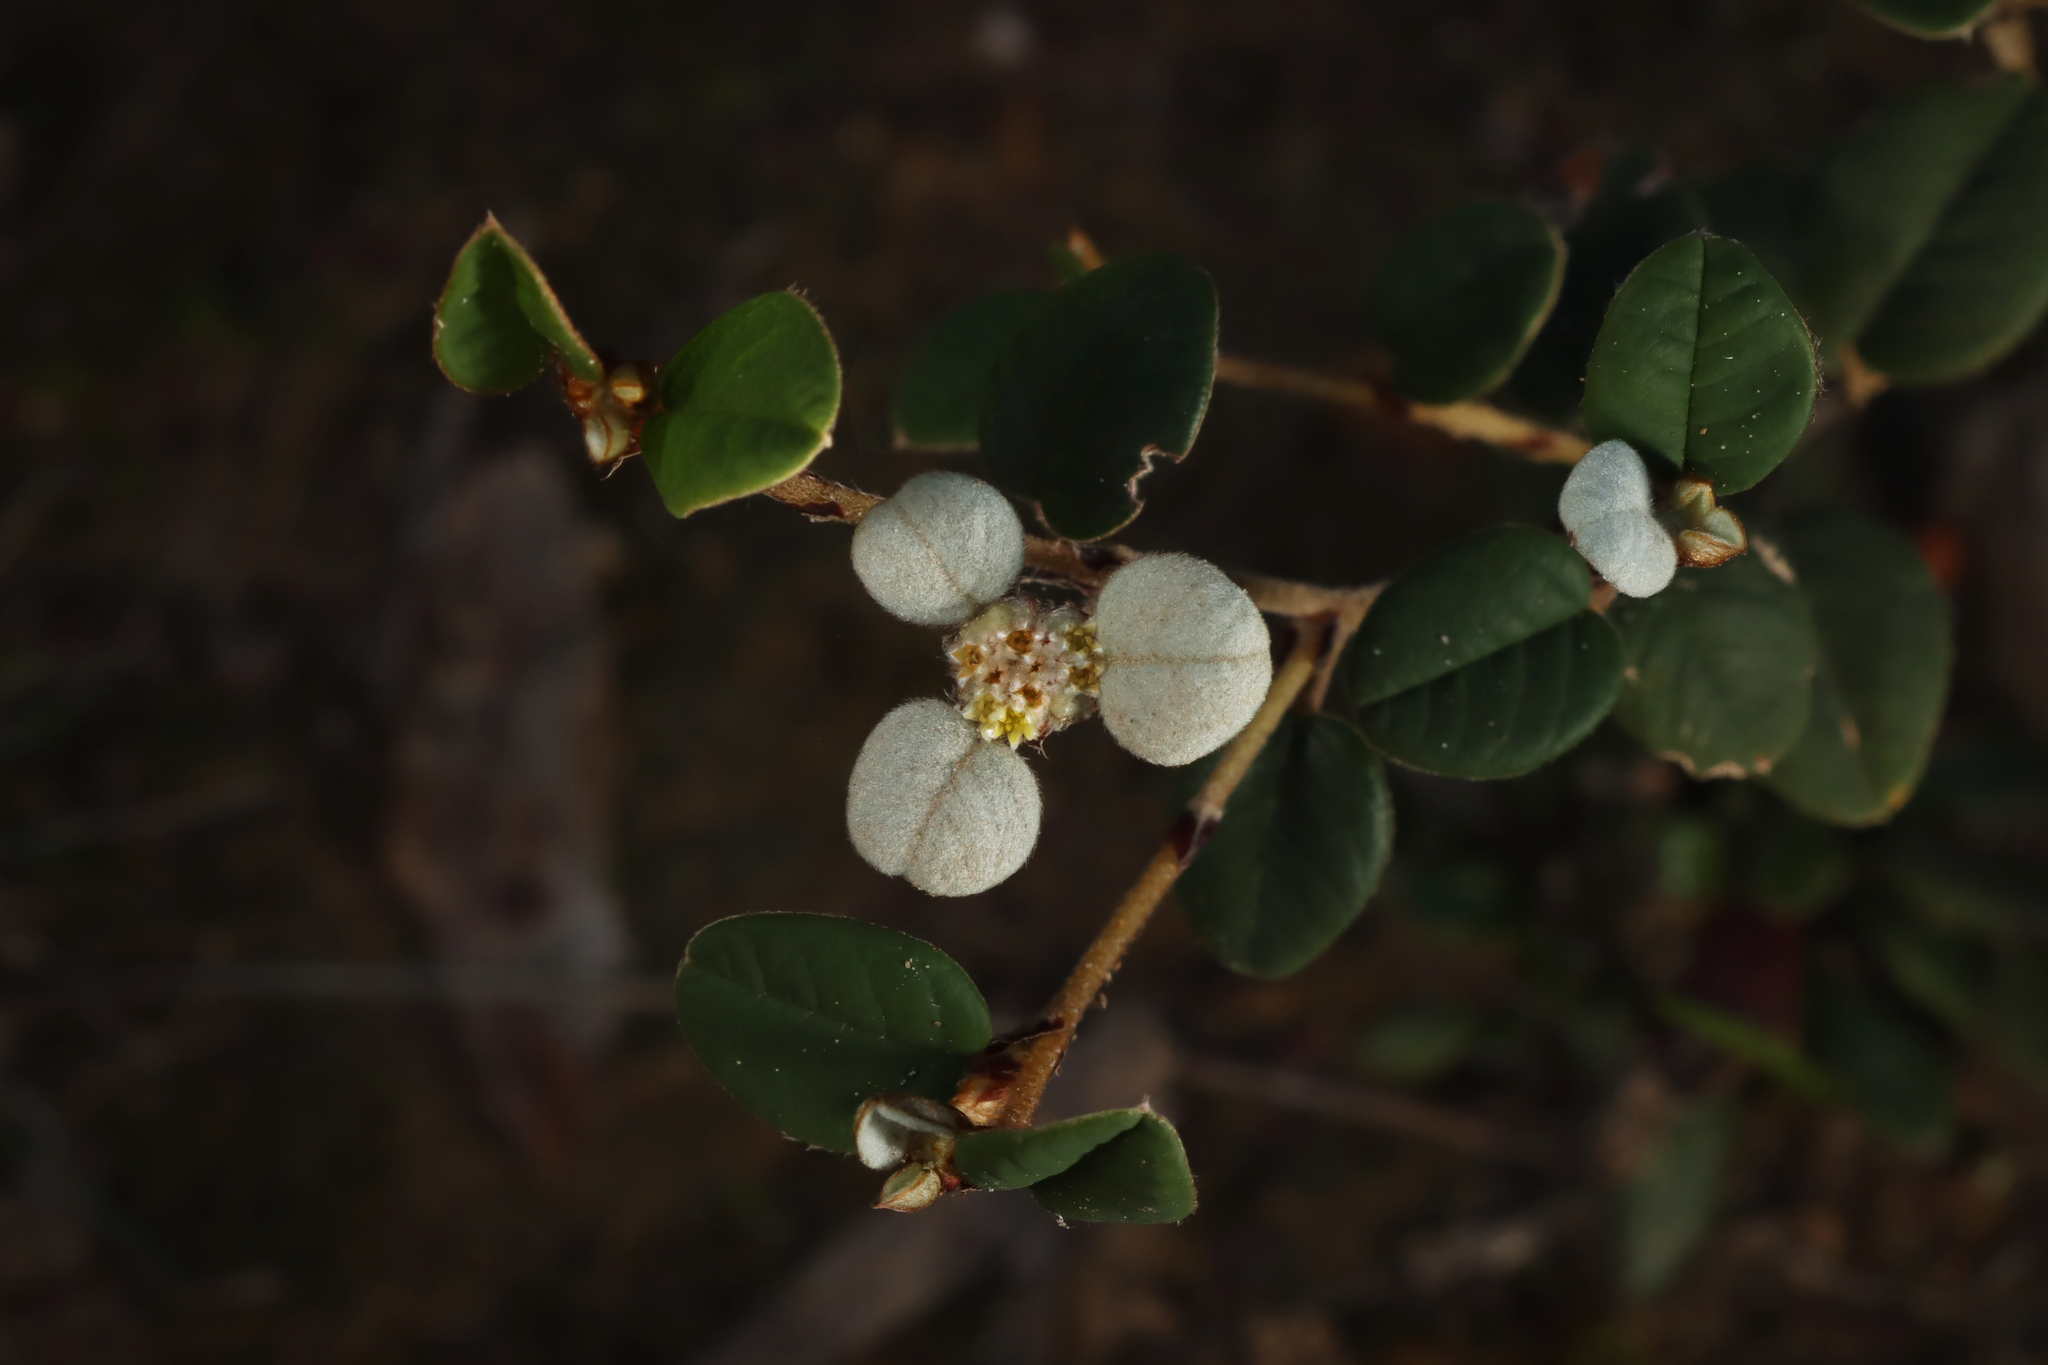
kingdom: Plantae
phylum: Tracheophyta
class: Magnoliopsida
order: Rosales
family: Rhamnaceae
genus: Spyridium
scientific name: Spyridium thymifolium
